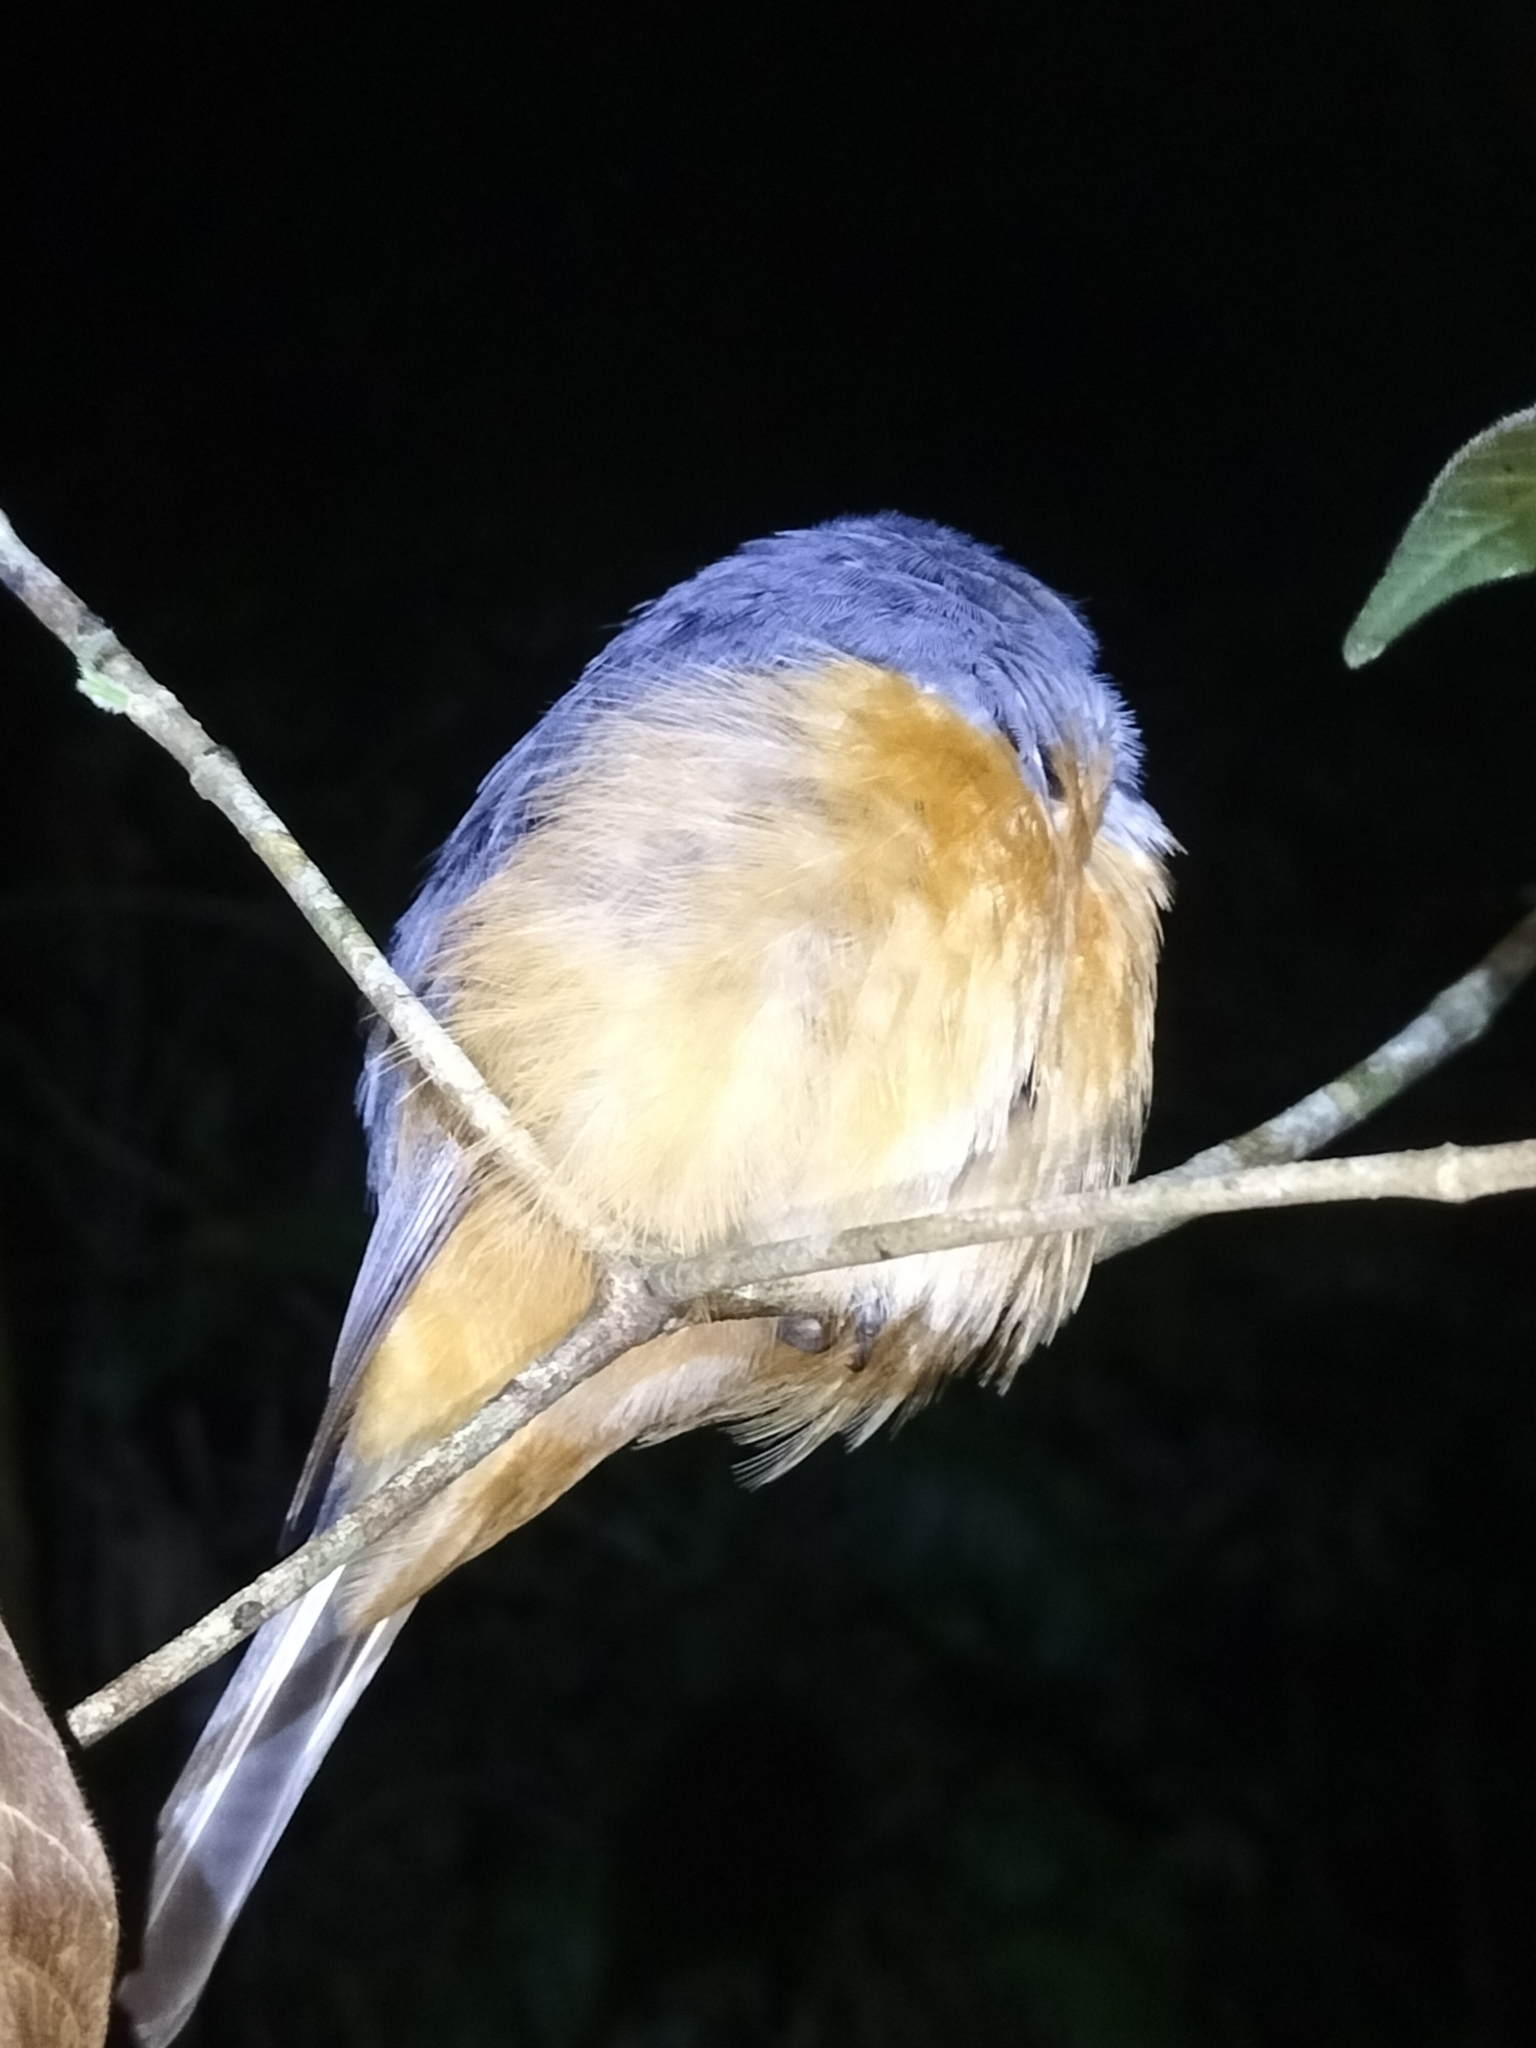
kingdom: Animalia
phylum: Chordata
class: Aves
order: Passeriformes
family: Monarchidae
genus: Monarcha
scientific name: Monarcha melanopsis
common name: Black-faced monarch
